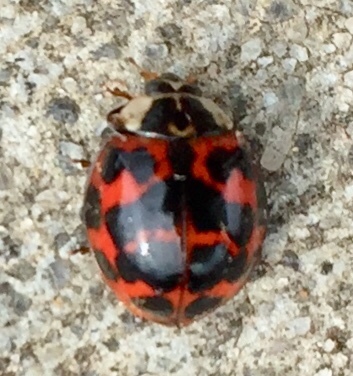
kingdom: Animalia
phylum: Arthropoda
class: Insecta
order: Coleoptera
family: Coccinellidae
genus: Harmonia
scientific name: Harmonia axyridis
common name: Harlequin ladybird
